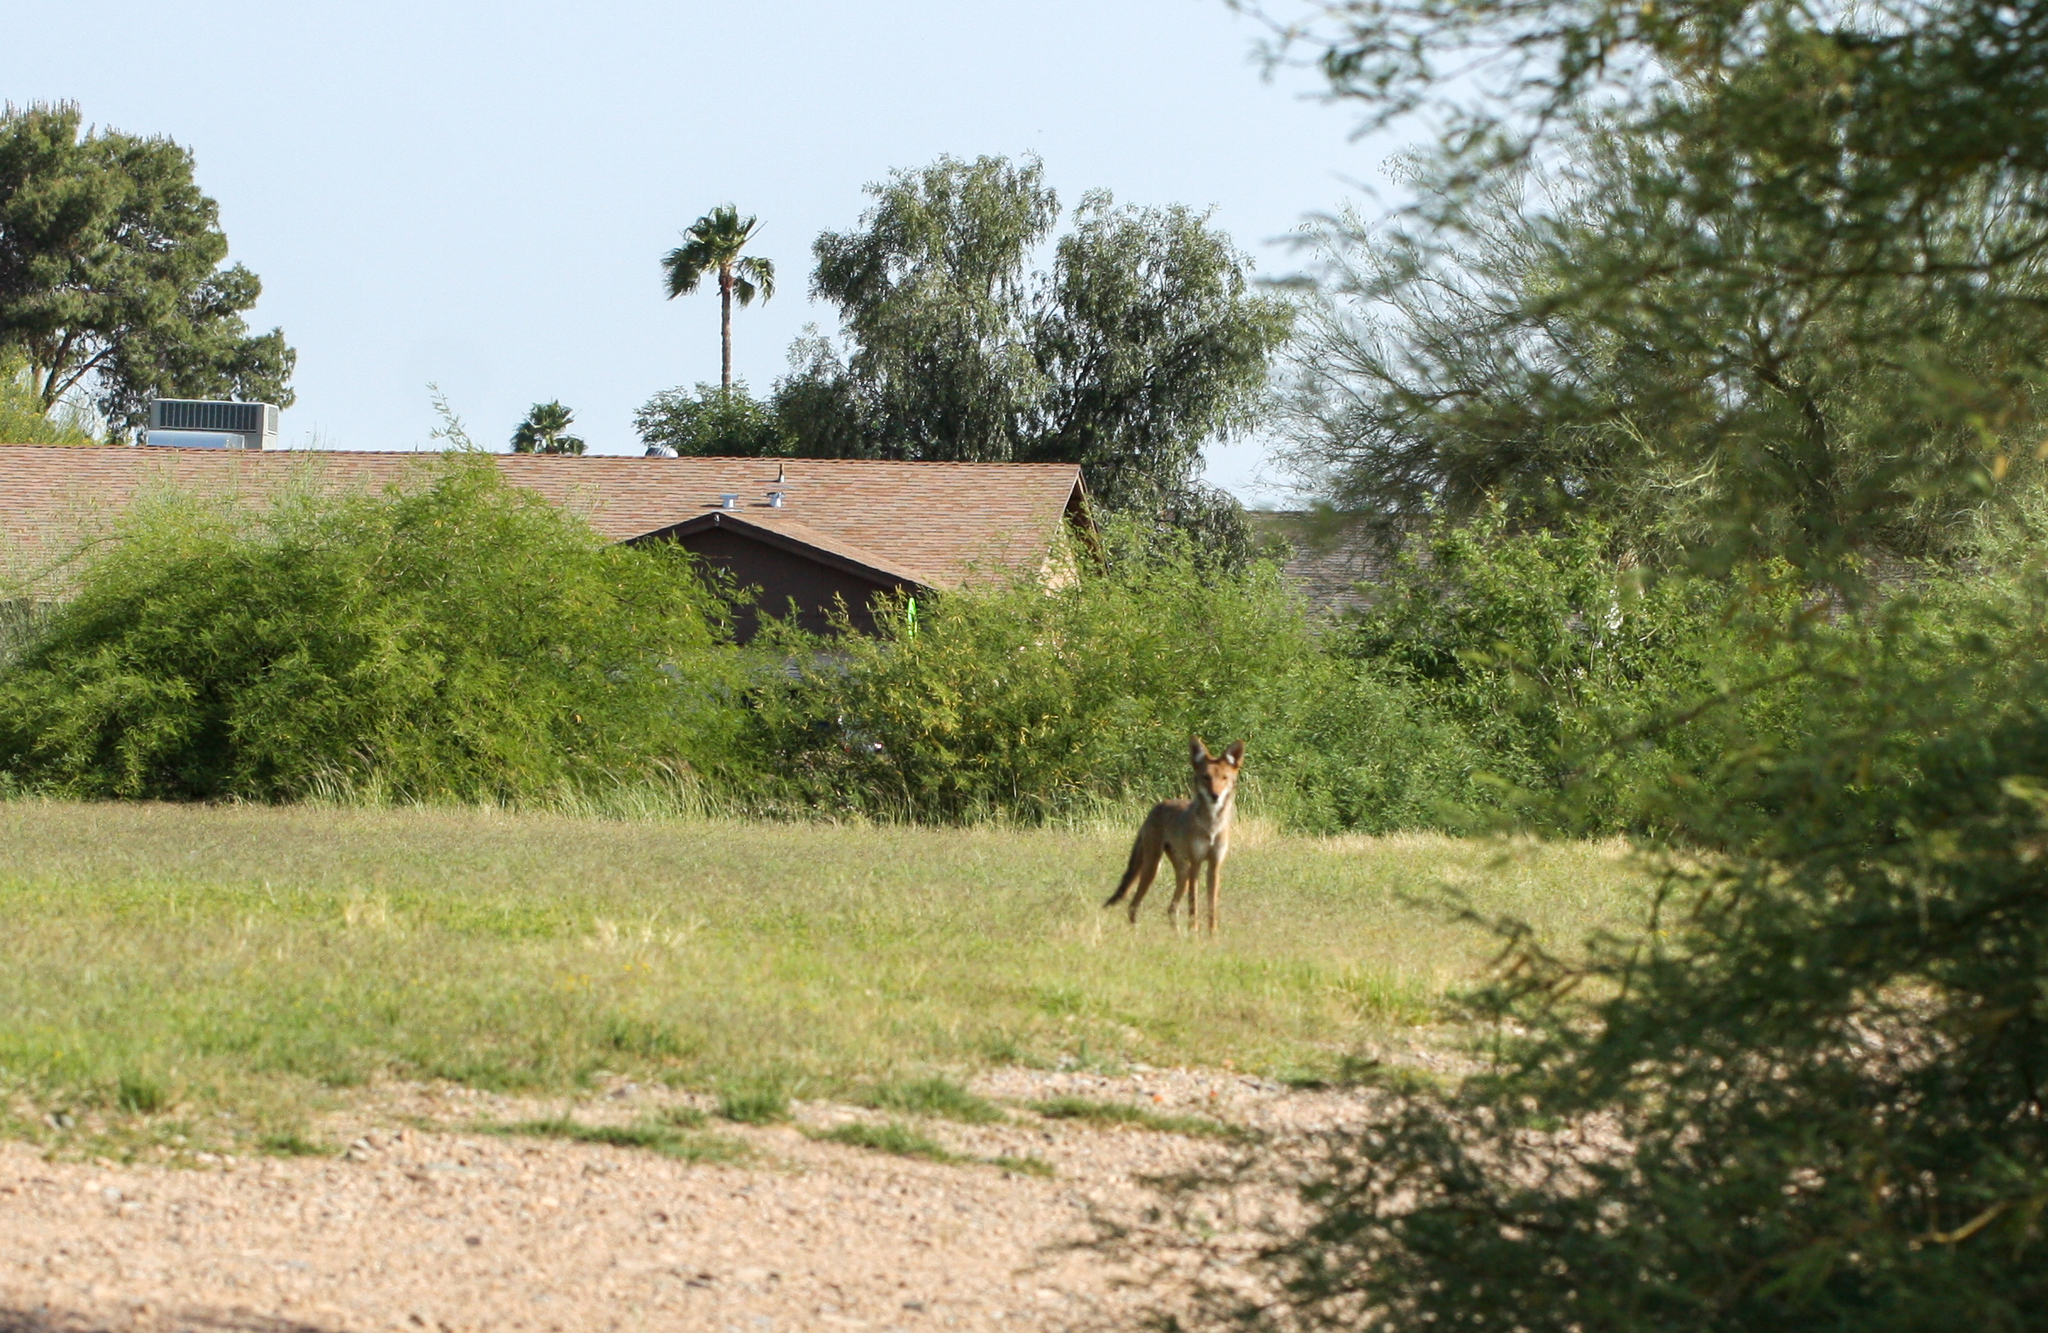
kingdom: Animalia
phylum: Chordata
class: Mammalia
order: Carnivora
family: Canidae
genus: Canis
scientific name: Canis latrans
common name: Coyote
